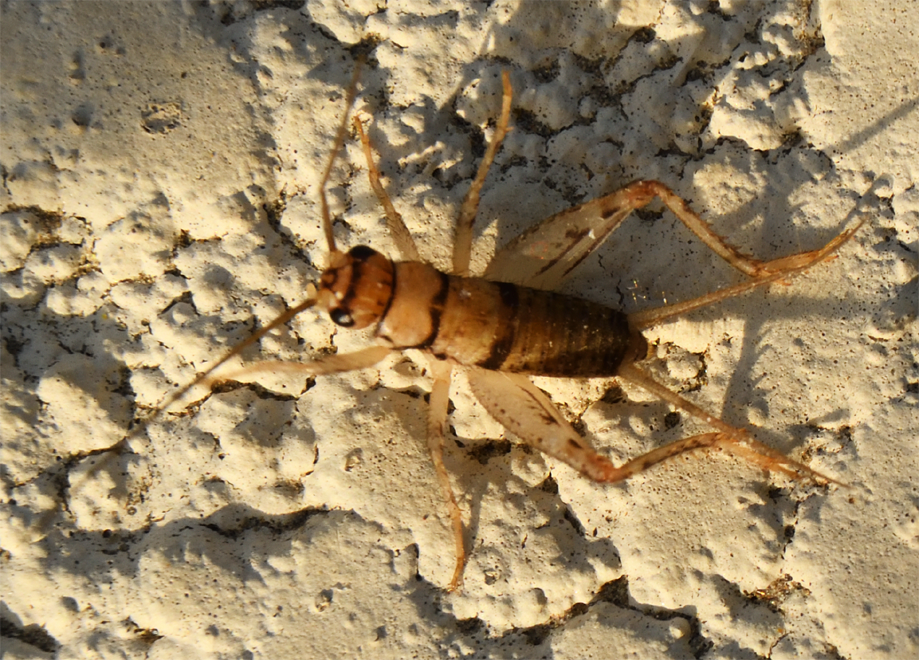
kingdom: Animalia
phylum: Arthropoda
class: Insecta
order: Orthoptera
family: Gryllidae
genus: Gryllodes
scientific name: Gryllodes sigillatus
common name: Tropical house cricket
